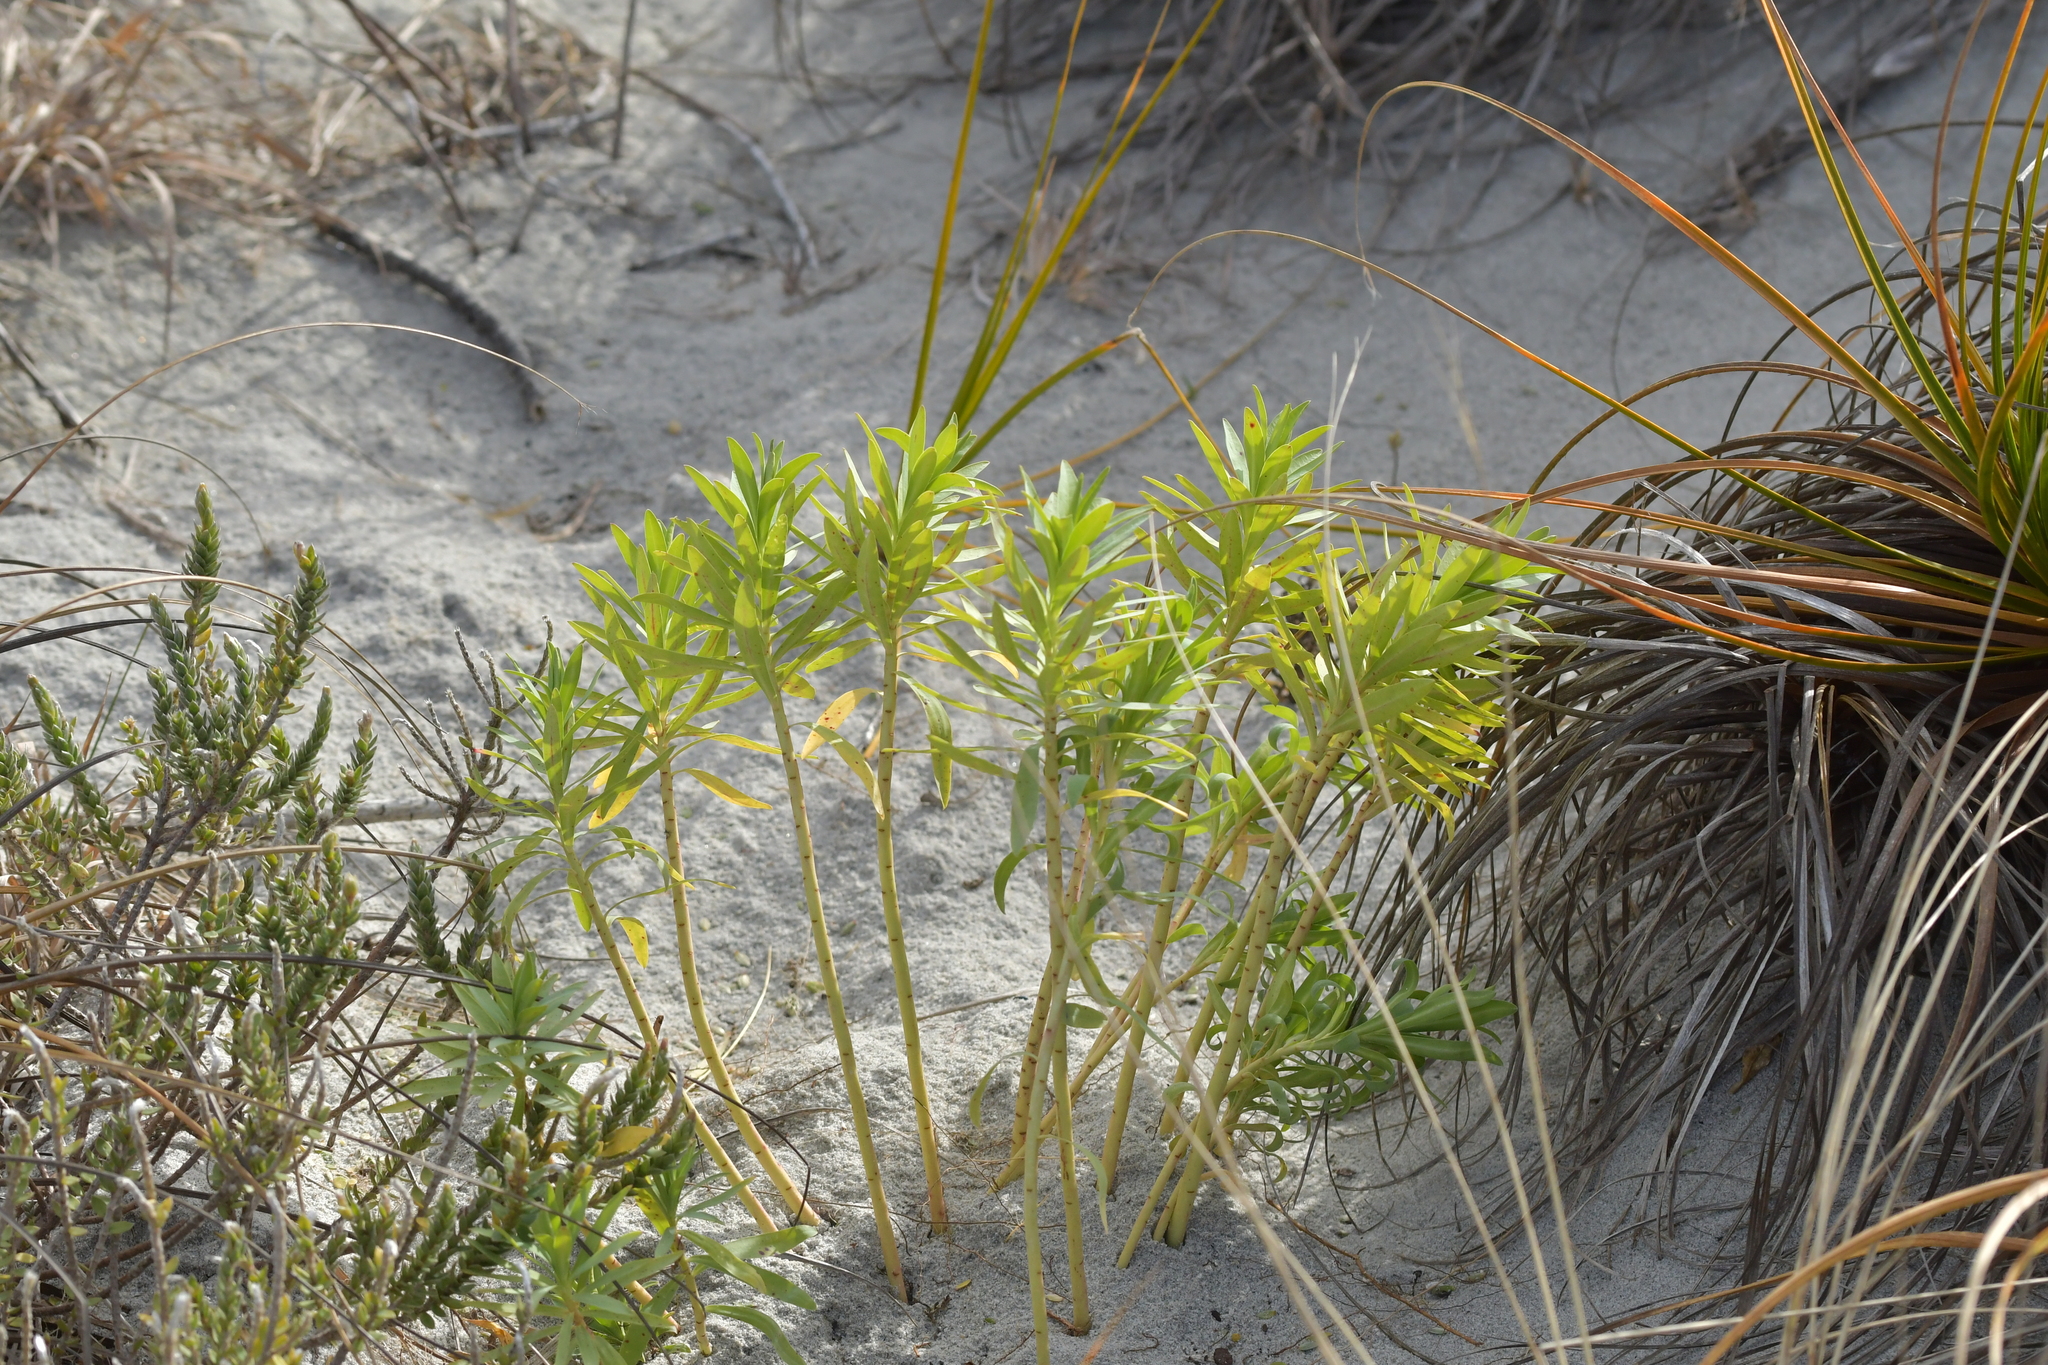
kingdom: Plantae
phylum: Tracheophyta
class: Magnoliopsida
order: Malpighiales
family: Euphorbiaceae
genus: Euphorbia
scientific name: Euphorbia glauca
